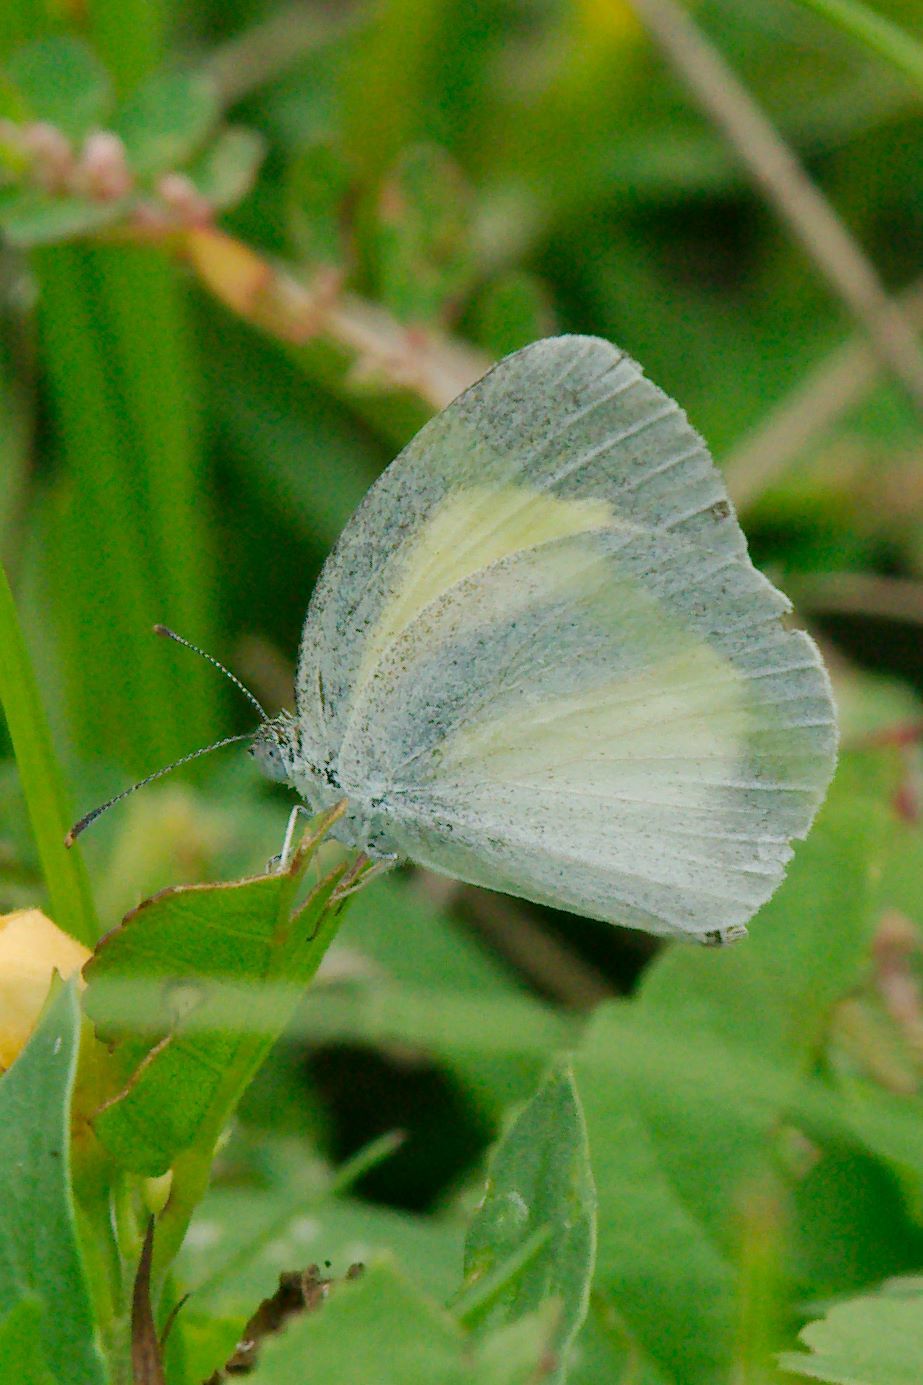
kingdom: Animalia
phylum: Arthropoda
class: Insecta
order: Lepidoptera
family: Pieridae
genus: Eurema
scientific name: Eurema daira
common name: Barred sulphur
